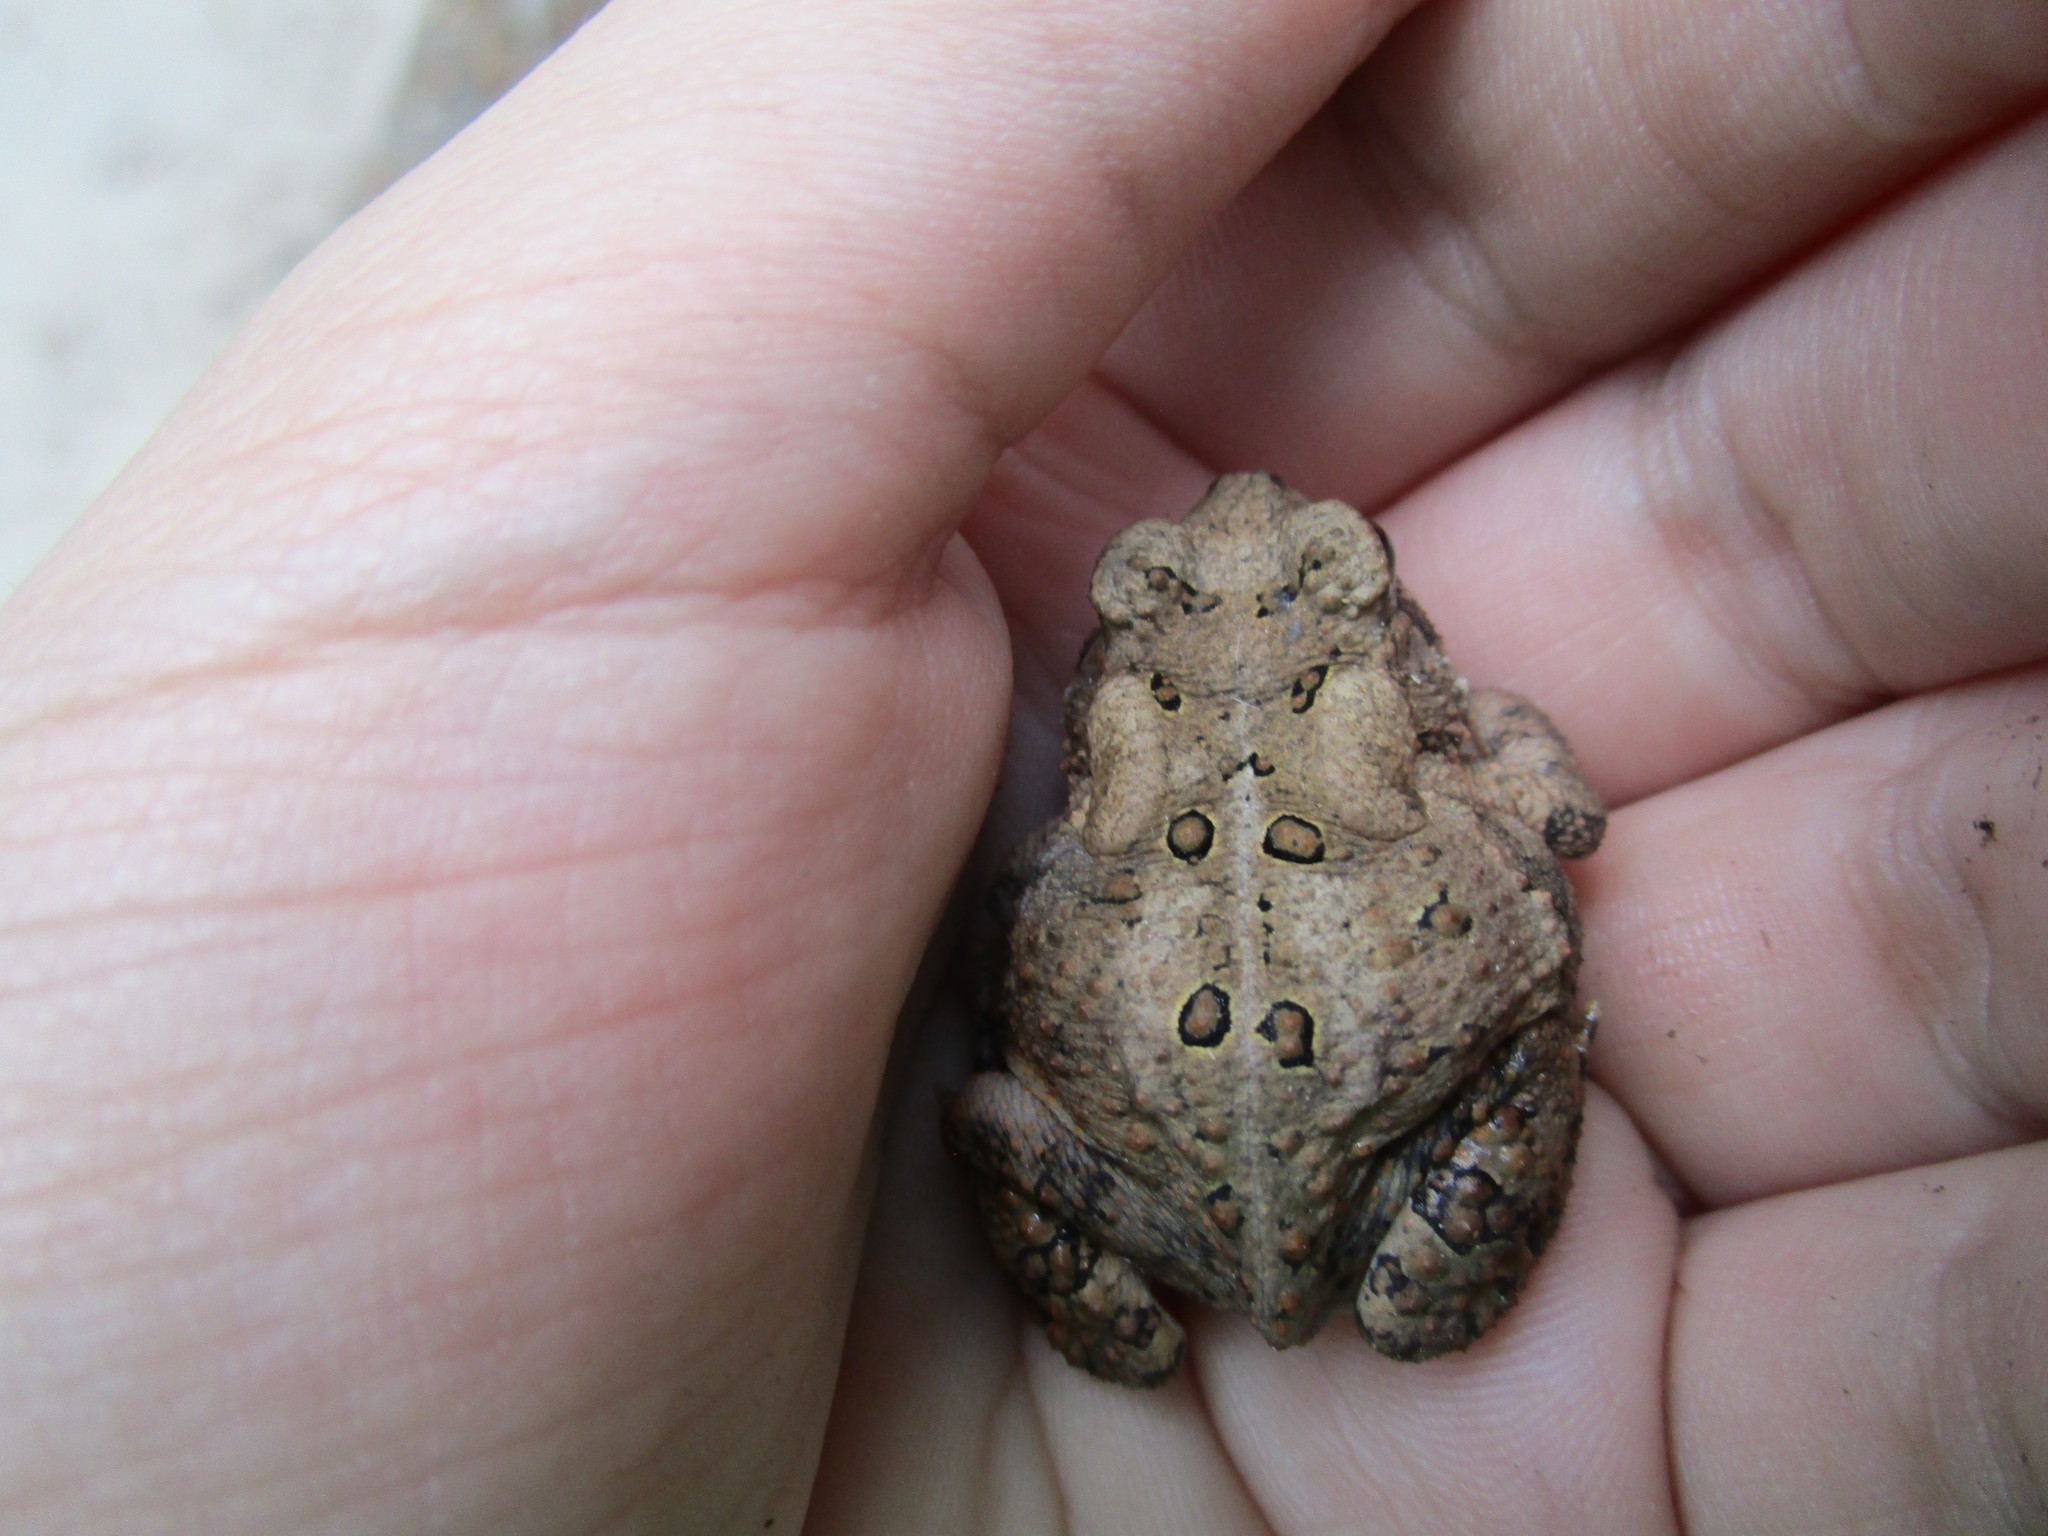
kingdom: Animalia
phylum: Chordata
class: Amphibia
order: Anura
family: Bufonidae
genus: Anaxyrus
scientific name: Anaxyrus americanus
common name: American toad
